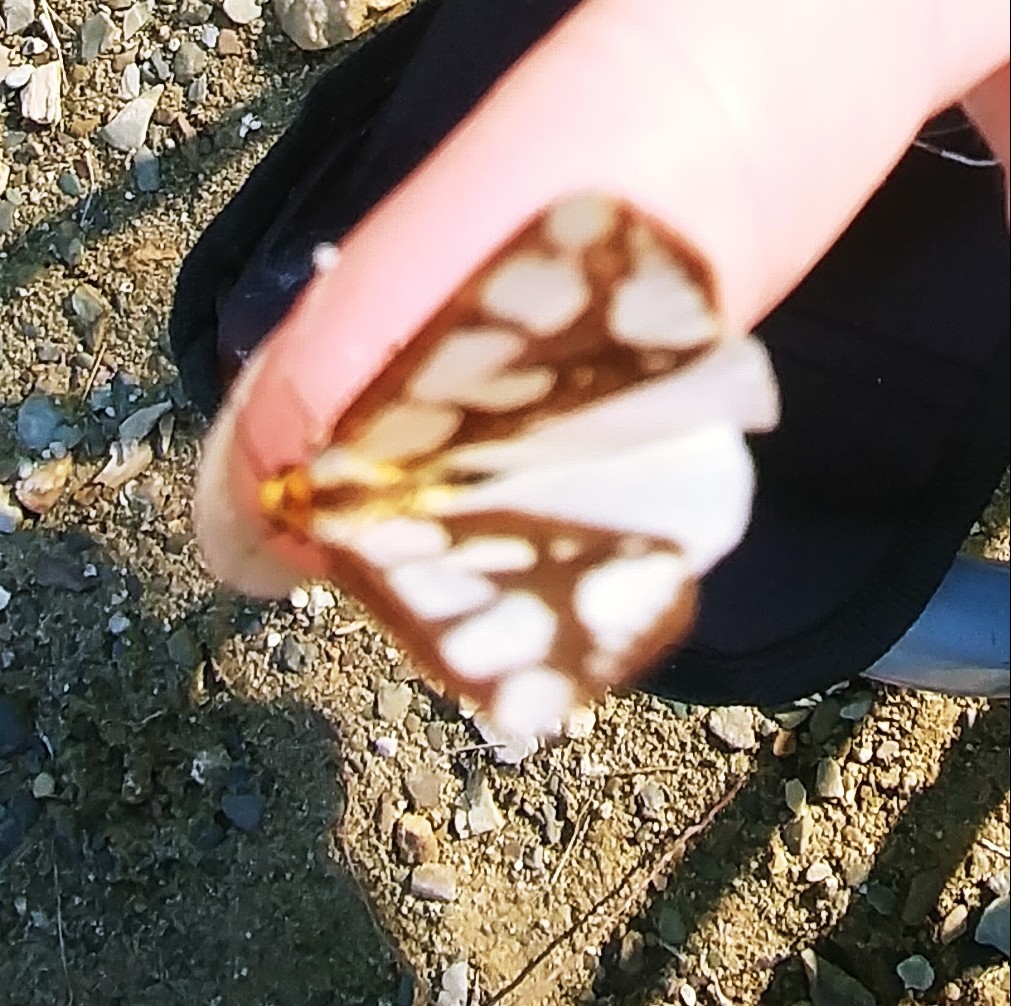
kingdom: Animalia
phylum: Arthropoda
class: Insecta
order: Lepidoptera
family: Erebidae
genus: Haploa
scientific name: Haploa confusa
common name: Confused haploa moth
